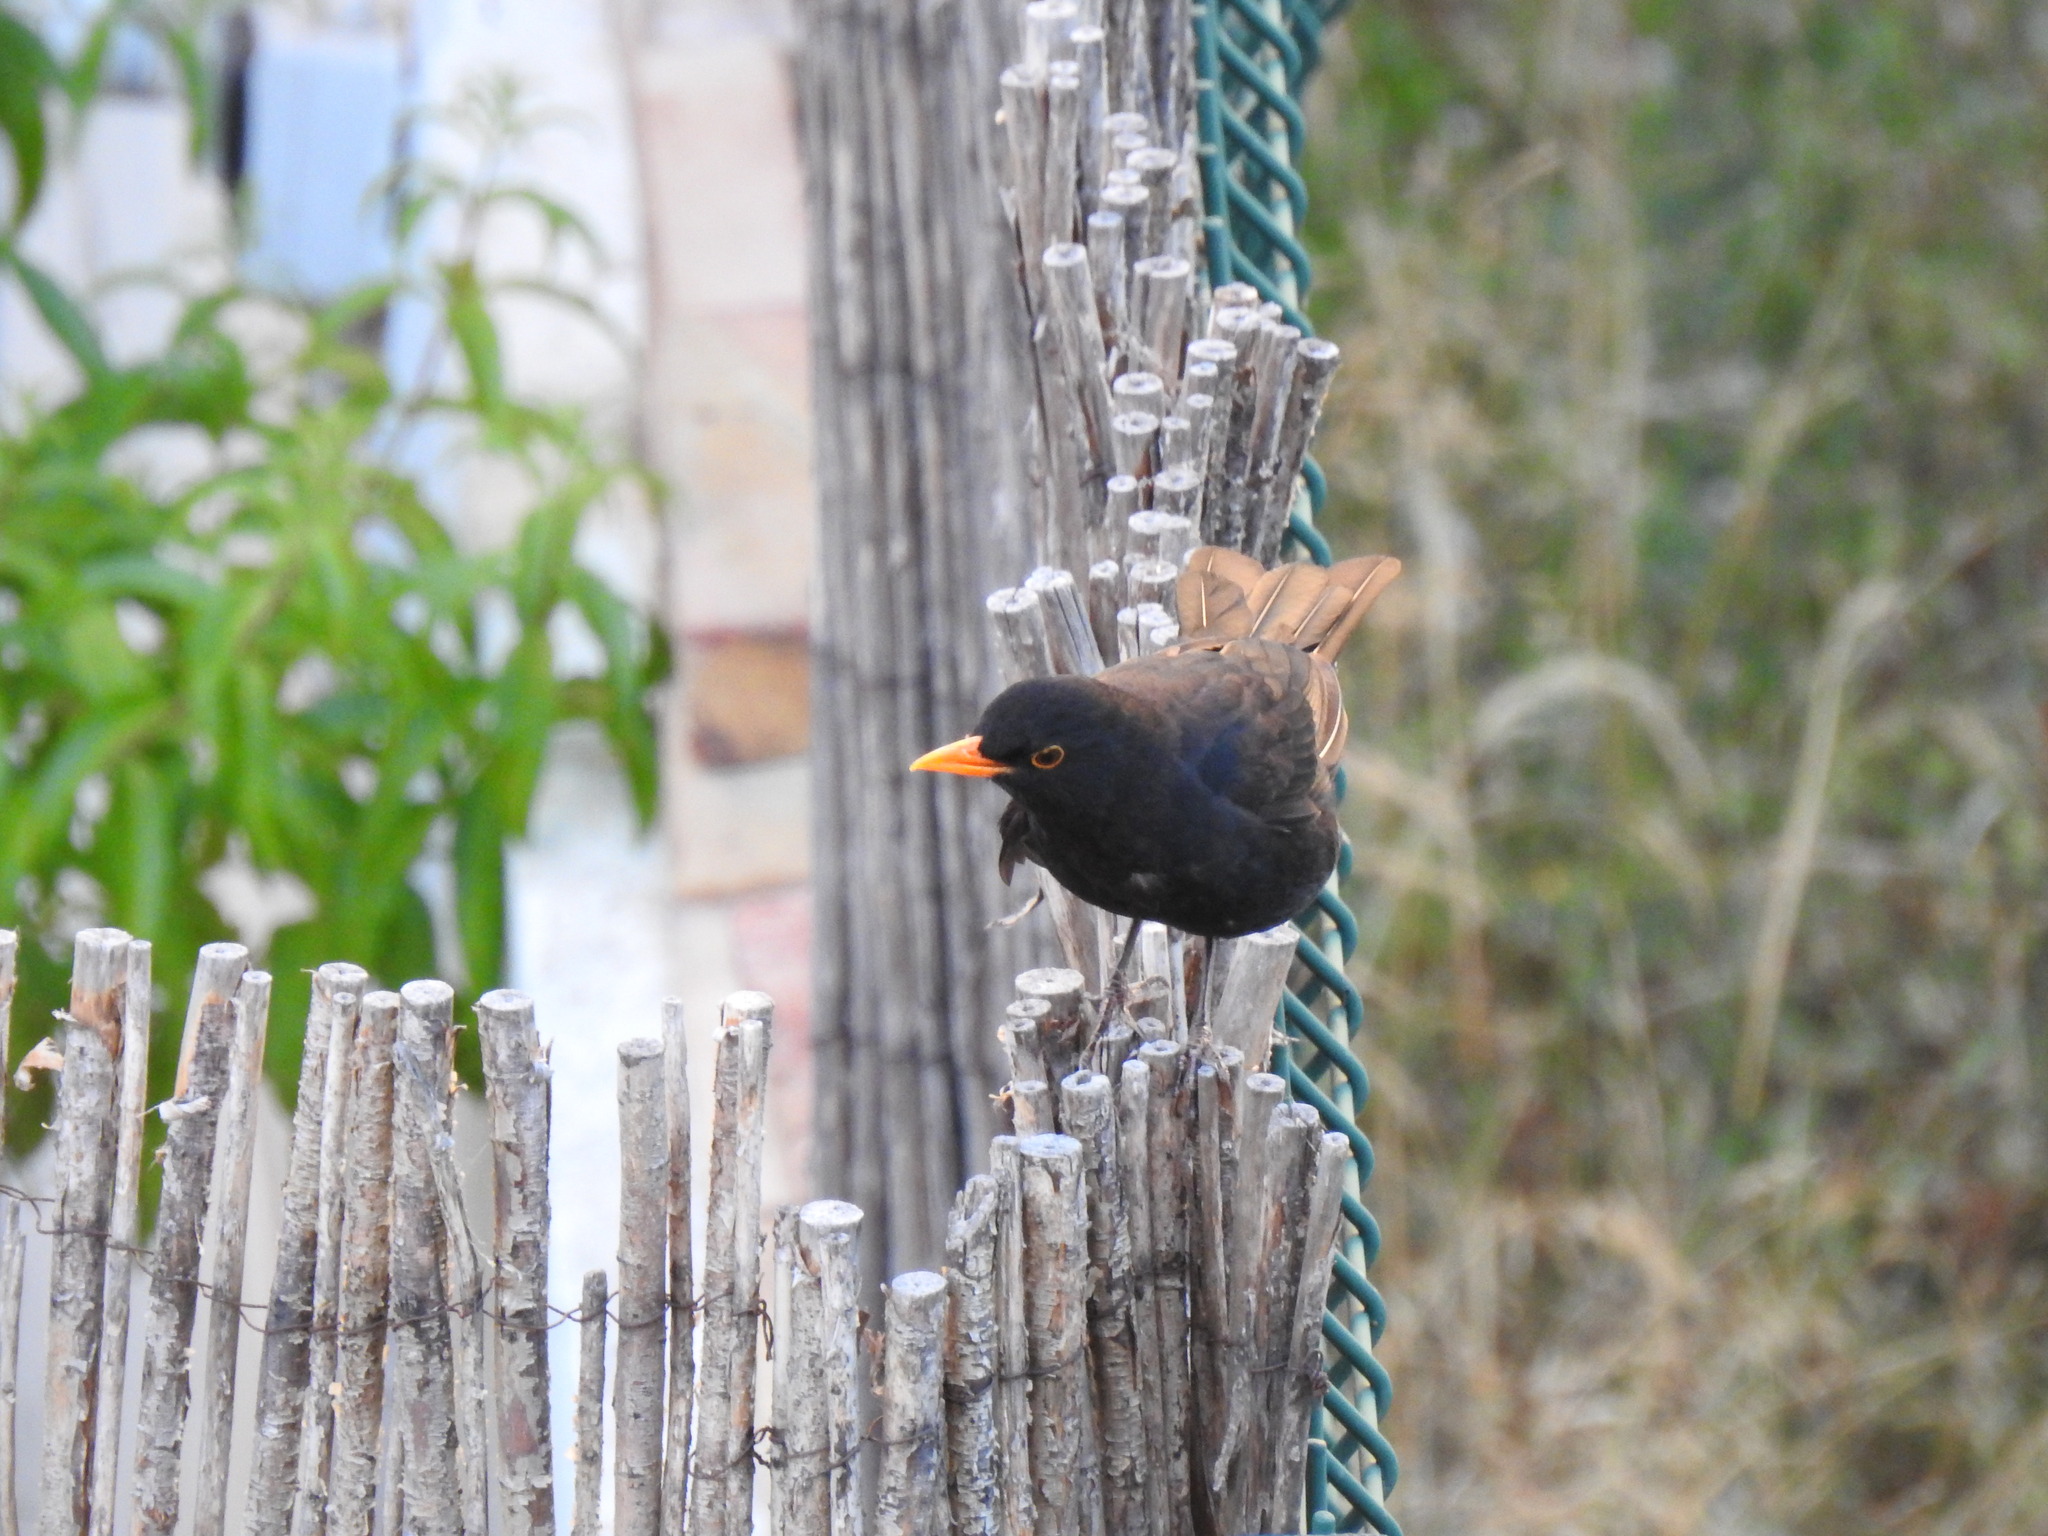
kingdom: Animalia
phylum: Chordata
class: Aves
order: Passeriformes
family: Turdidae
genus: Turdus
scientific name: Turdus merula
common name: Common blackbird
